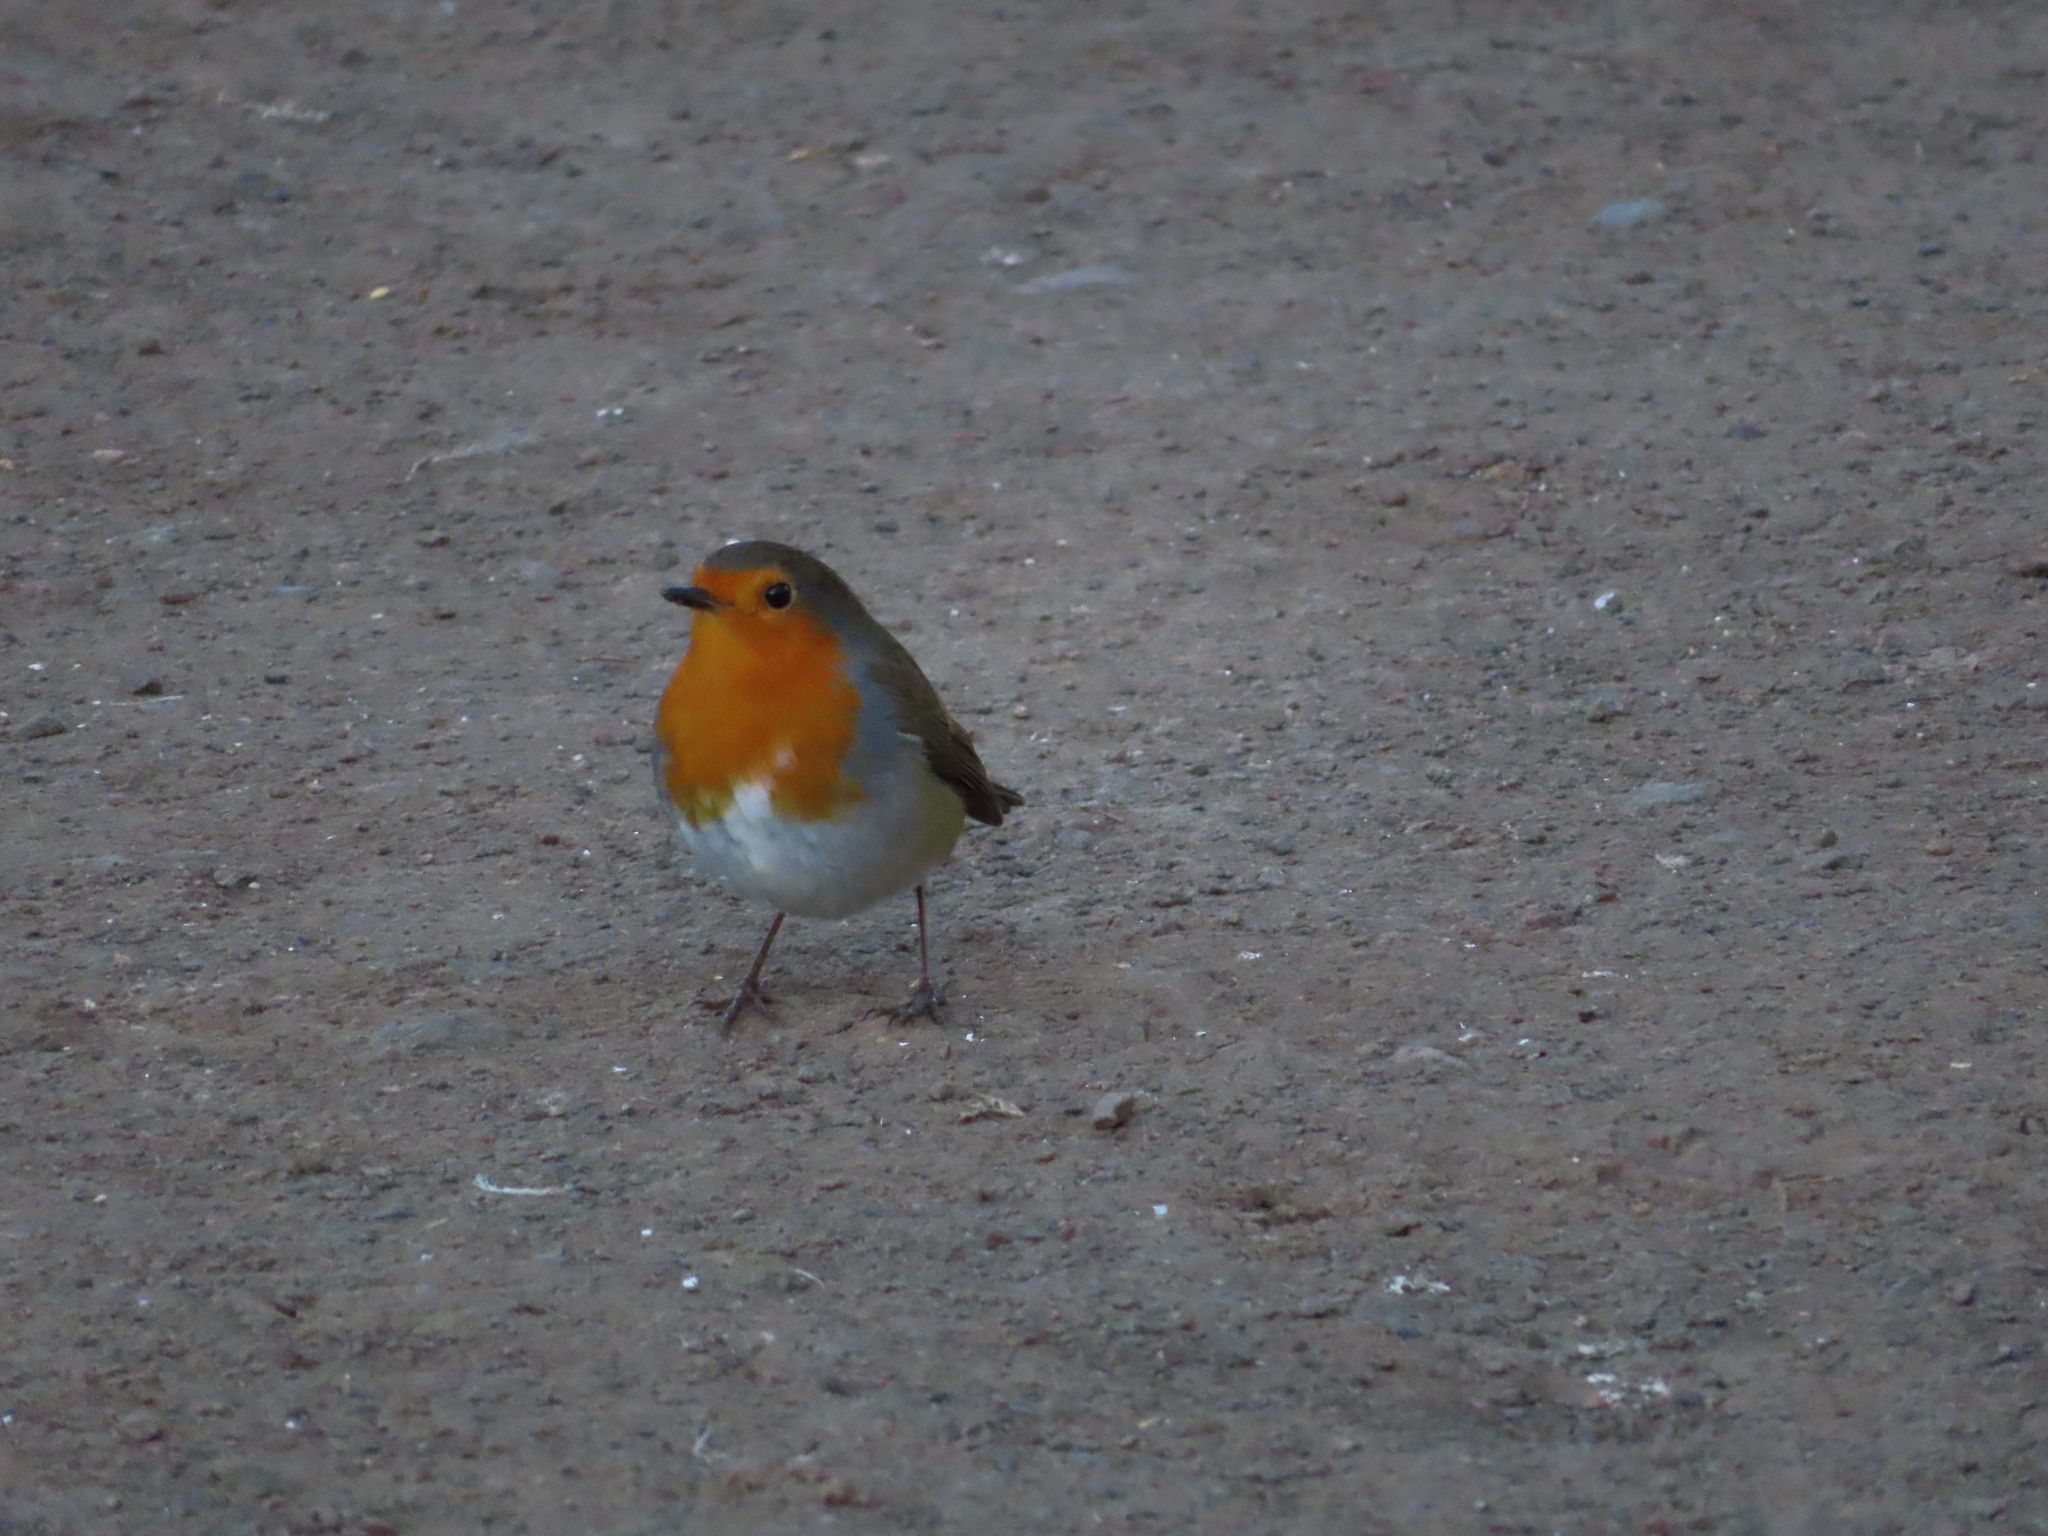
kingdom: Animalia
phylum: Chordata
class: Aves
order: Passeriformes
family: Muscicapidae
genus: Erithacus
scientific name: Erithacus rubecula
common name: European robin
